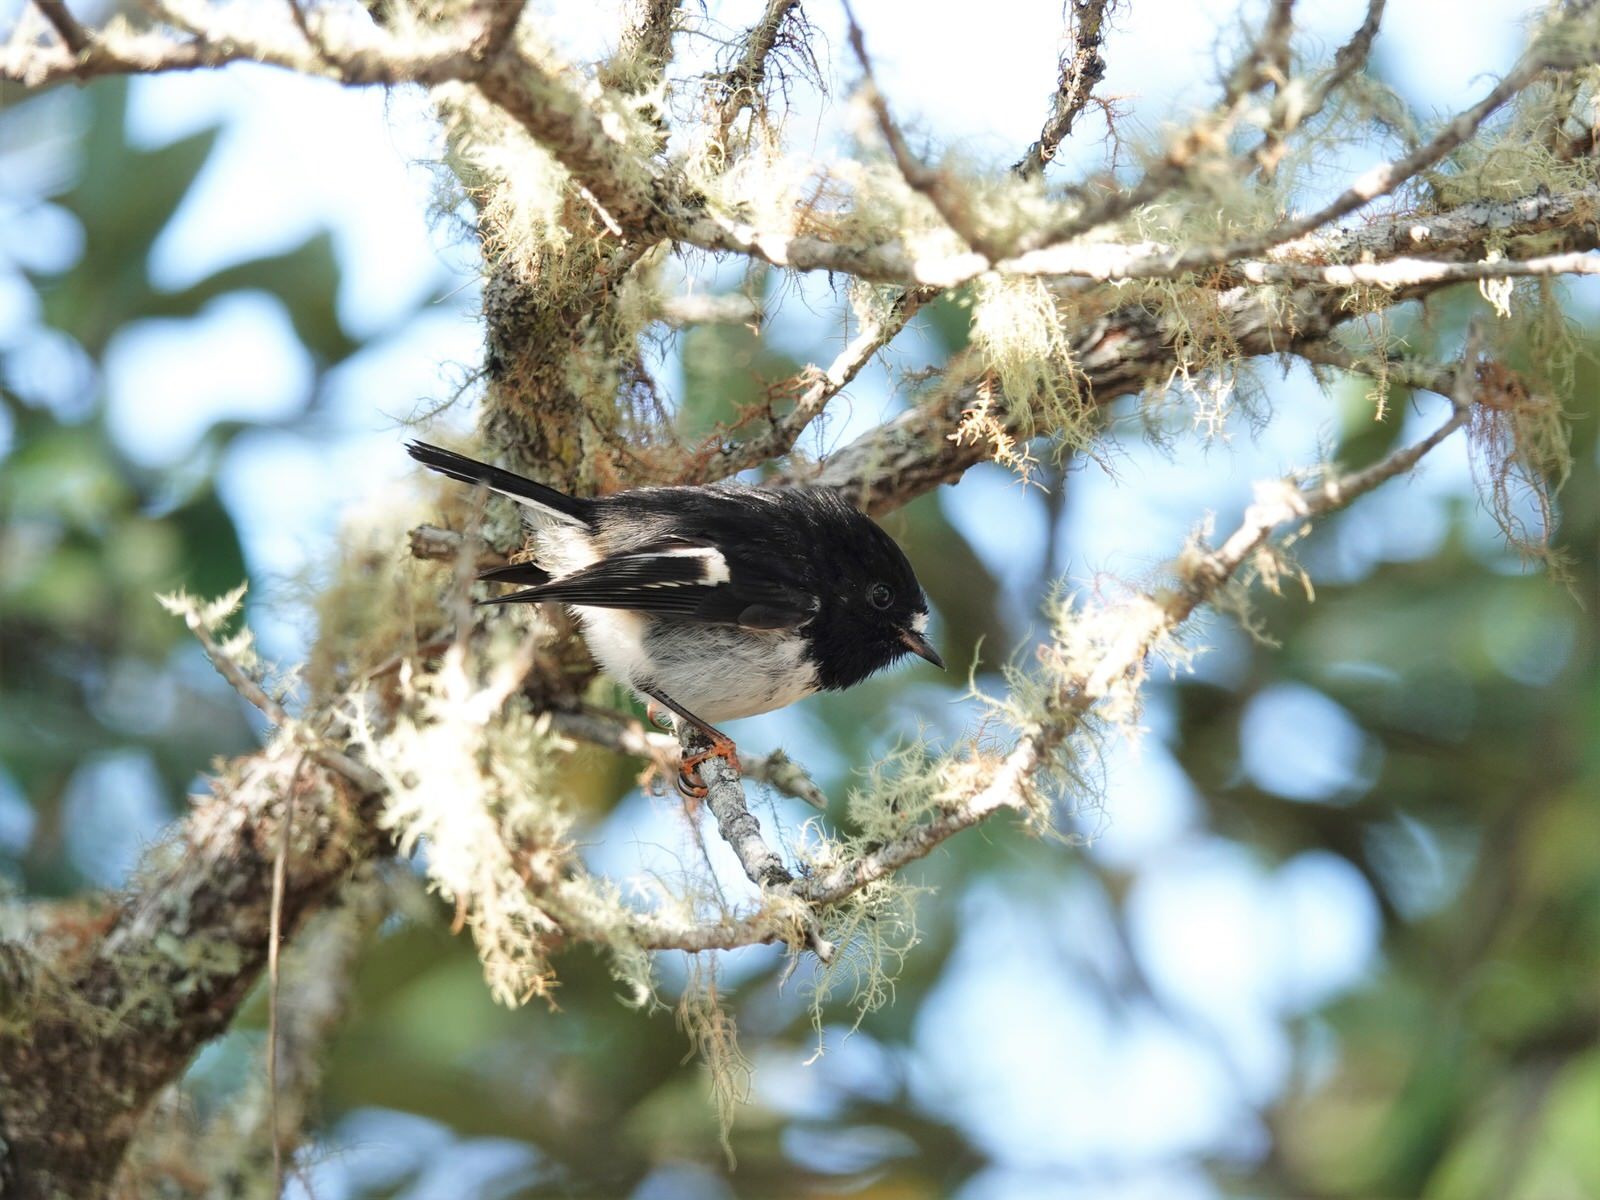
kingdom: Animalia
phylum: Chordata
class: Aves
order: Passeriformes
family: Petroicidae
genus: Petroica
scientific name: Petroica macrocephala
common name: Tomtit
